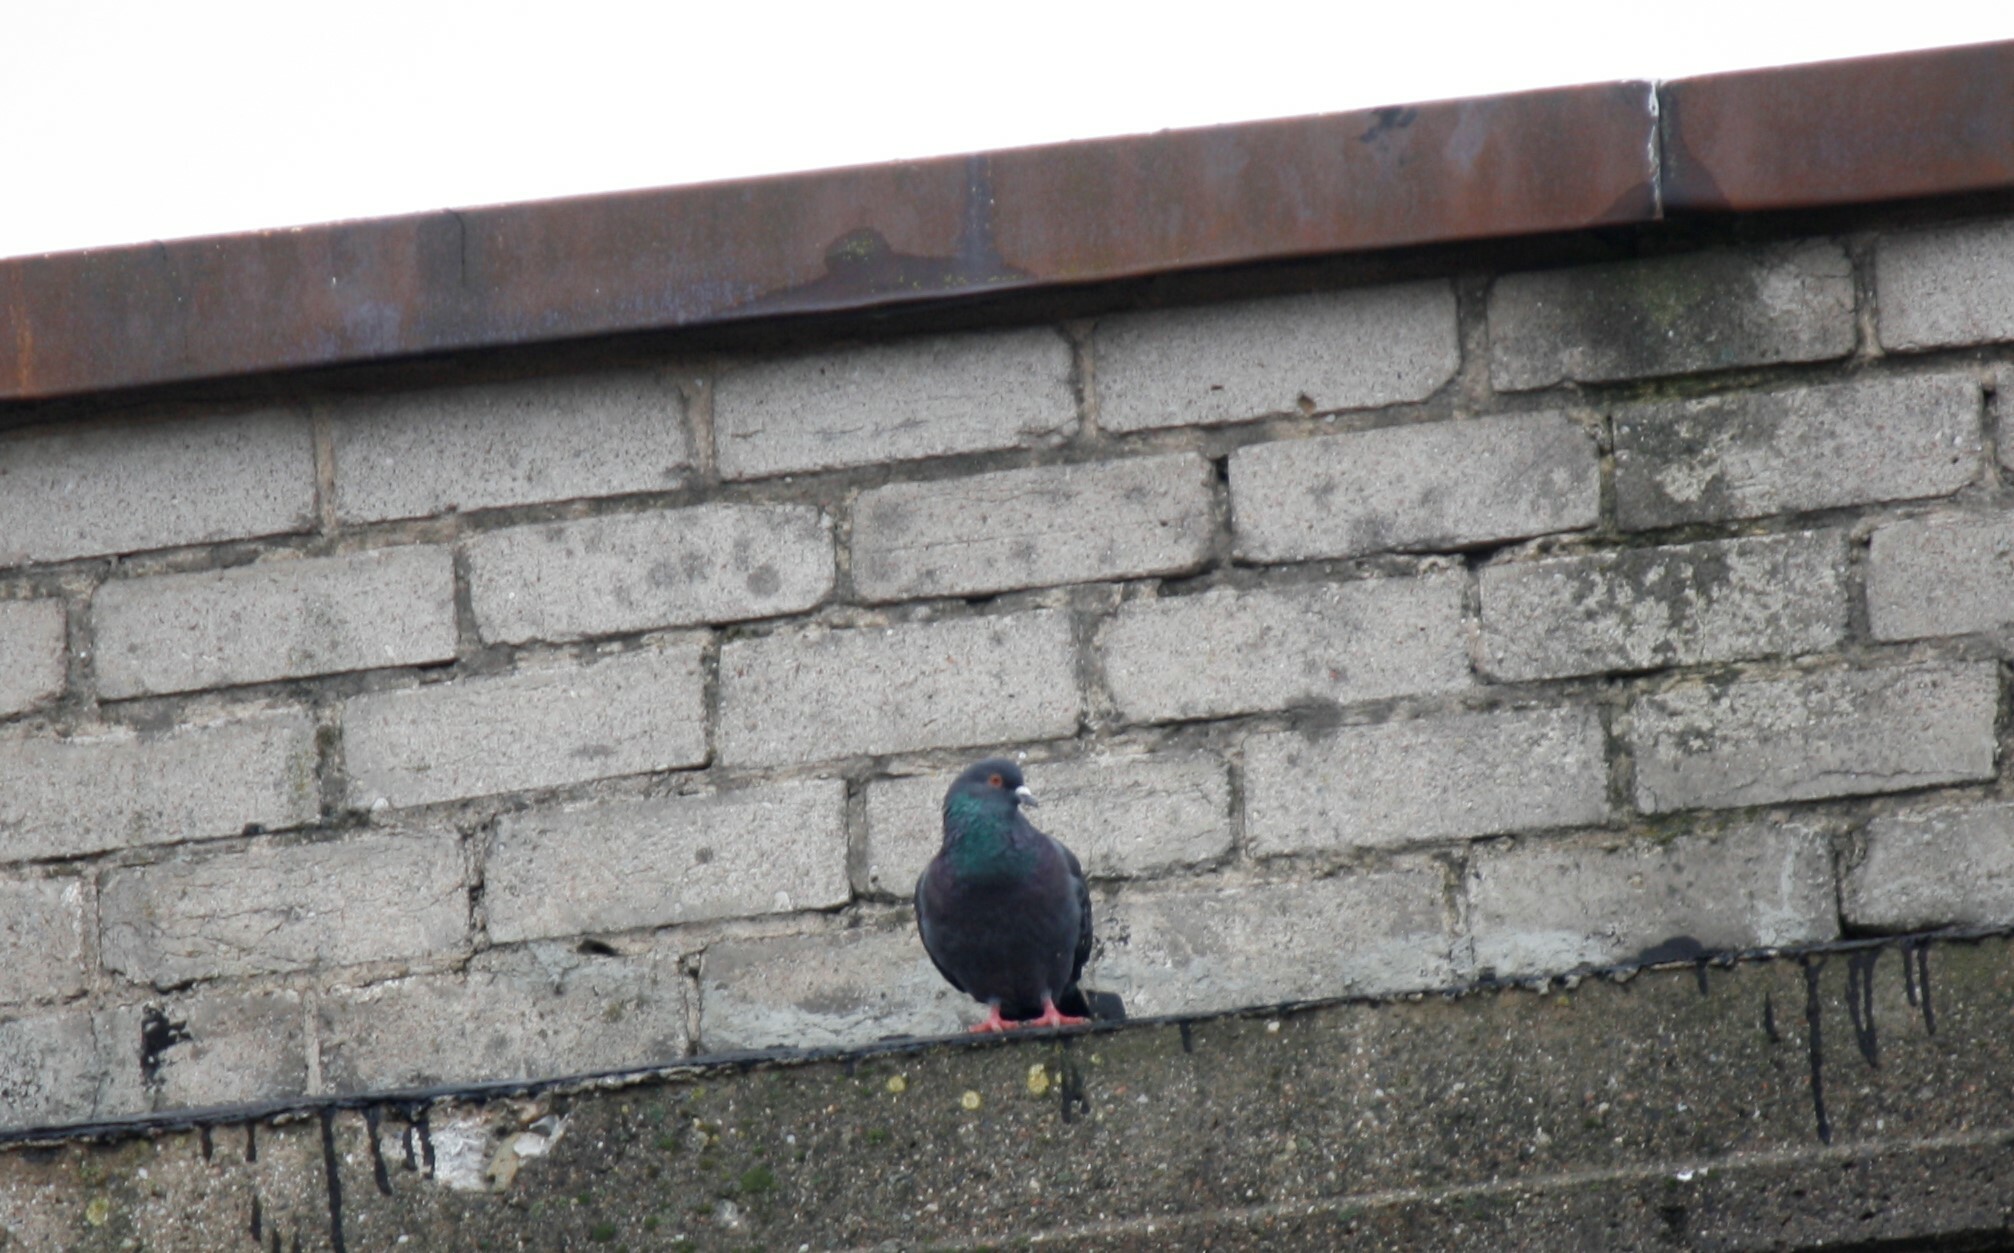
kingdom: Animalia
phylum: Chordata
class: Aves
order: Columbiformes
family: Columbidae
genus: Columba
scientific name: Columba livia
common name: Rock pigeon
